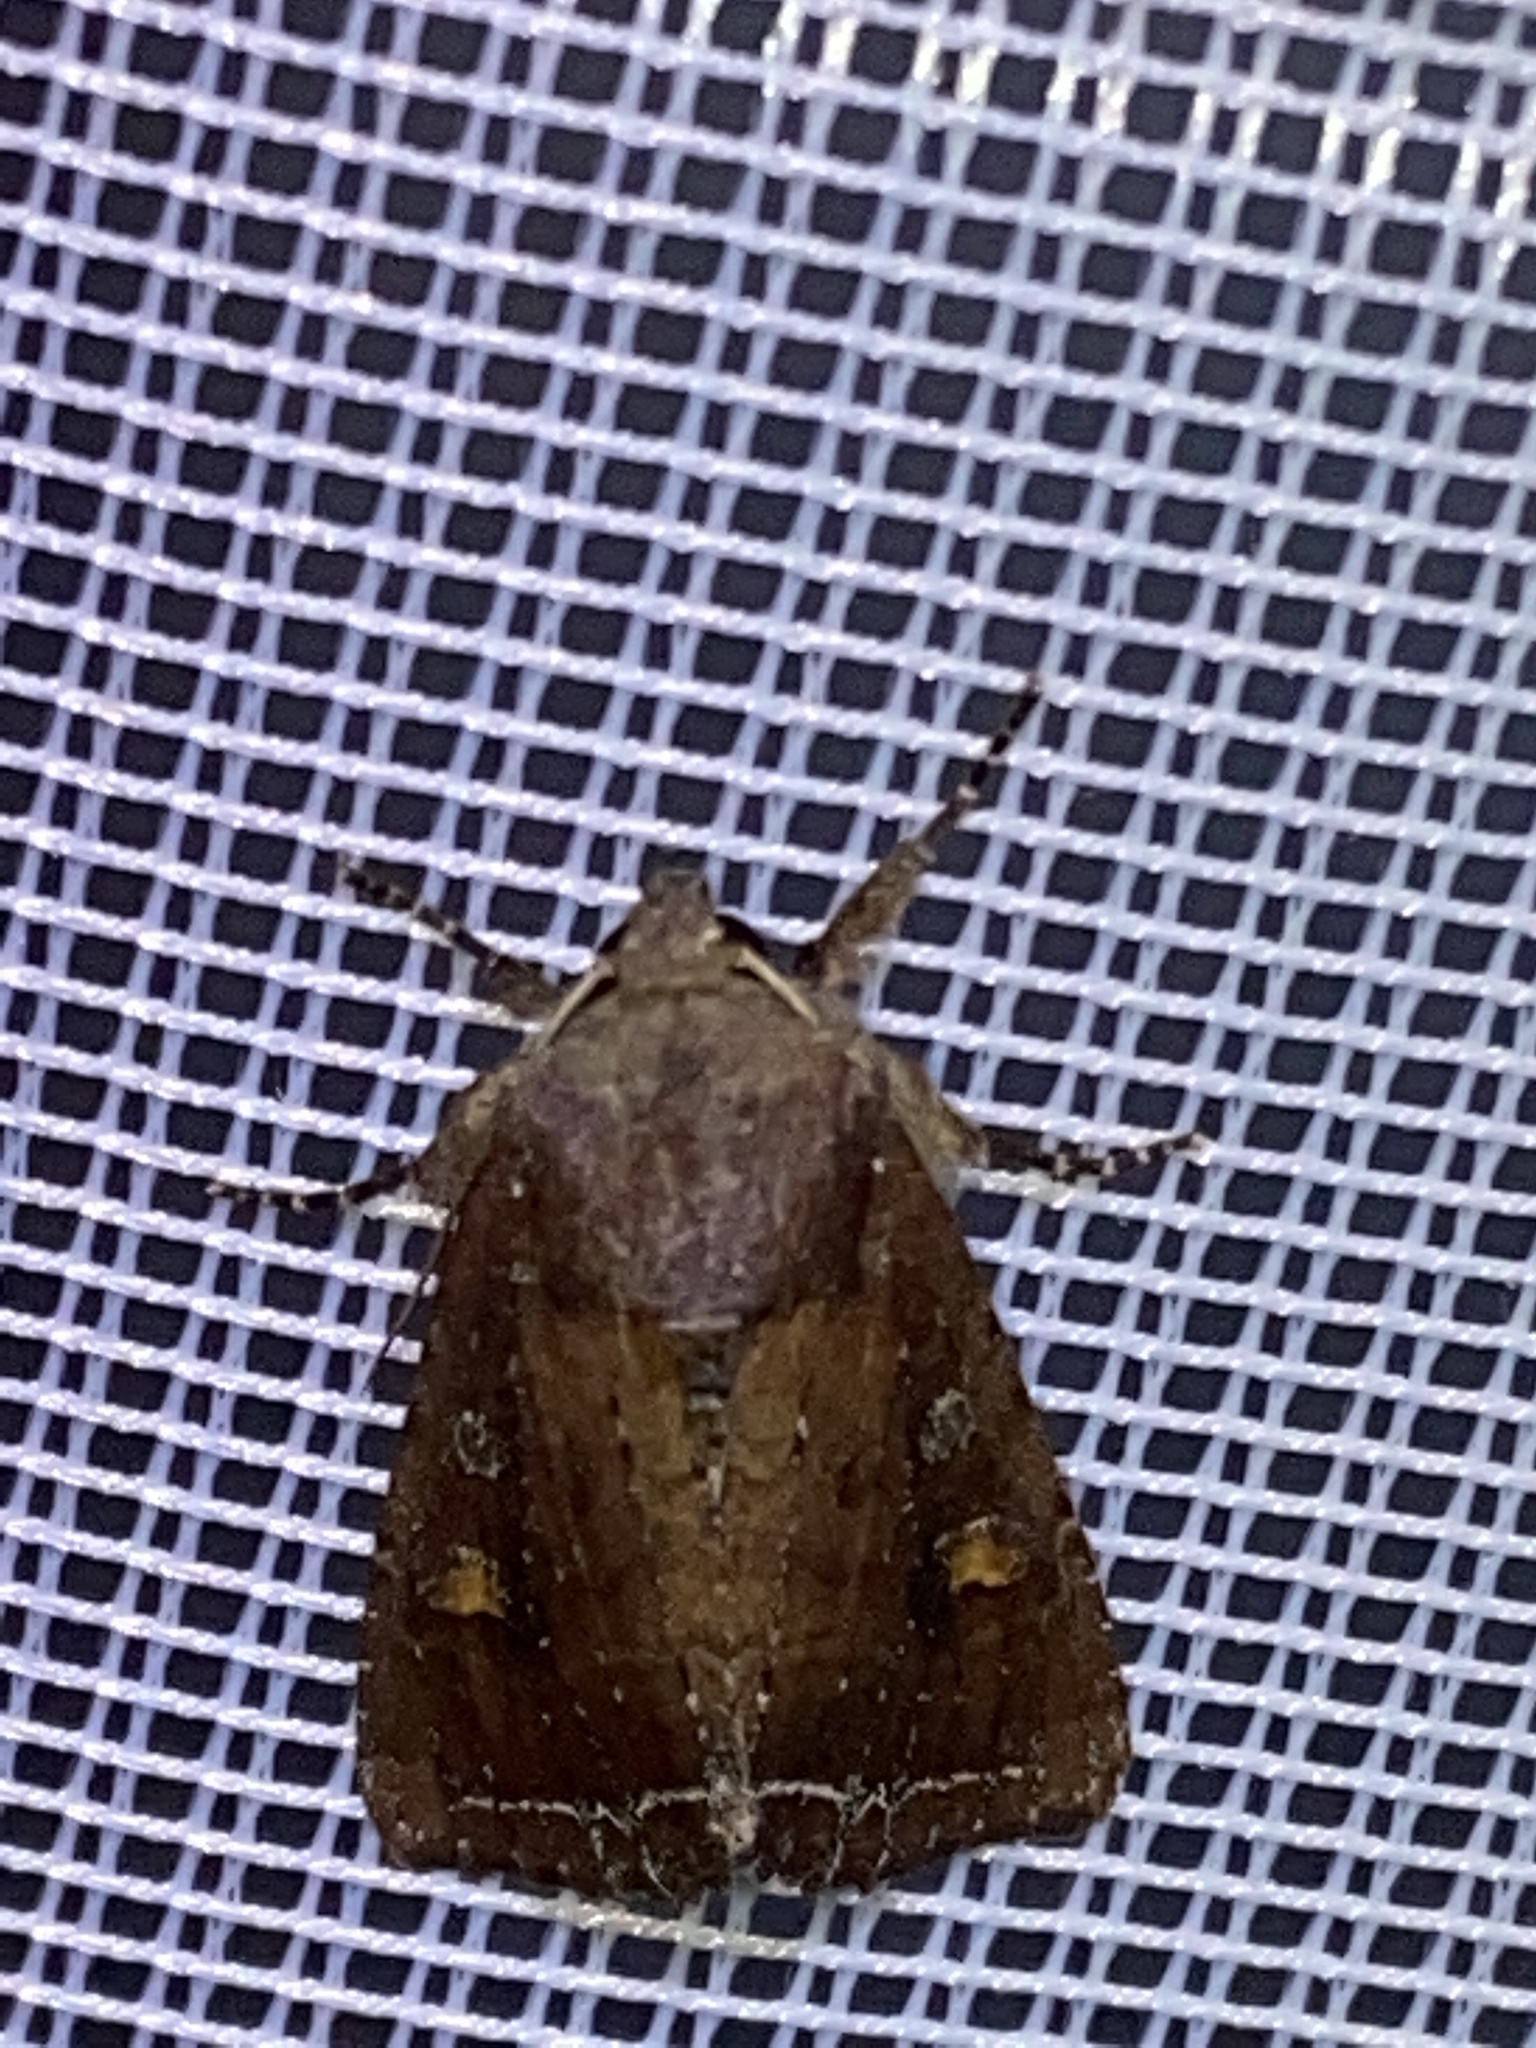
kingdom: Animalia
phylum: Arthropoda
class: Insecta
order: Lepidoptera
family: Noctuidae
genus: Lacanobia
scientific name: Lacanobia oleracea
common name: Bright-line brown-eye
